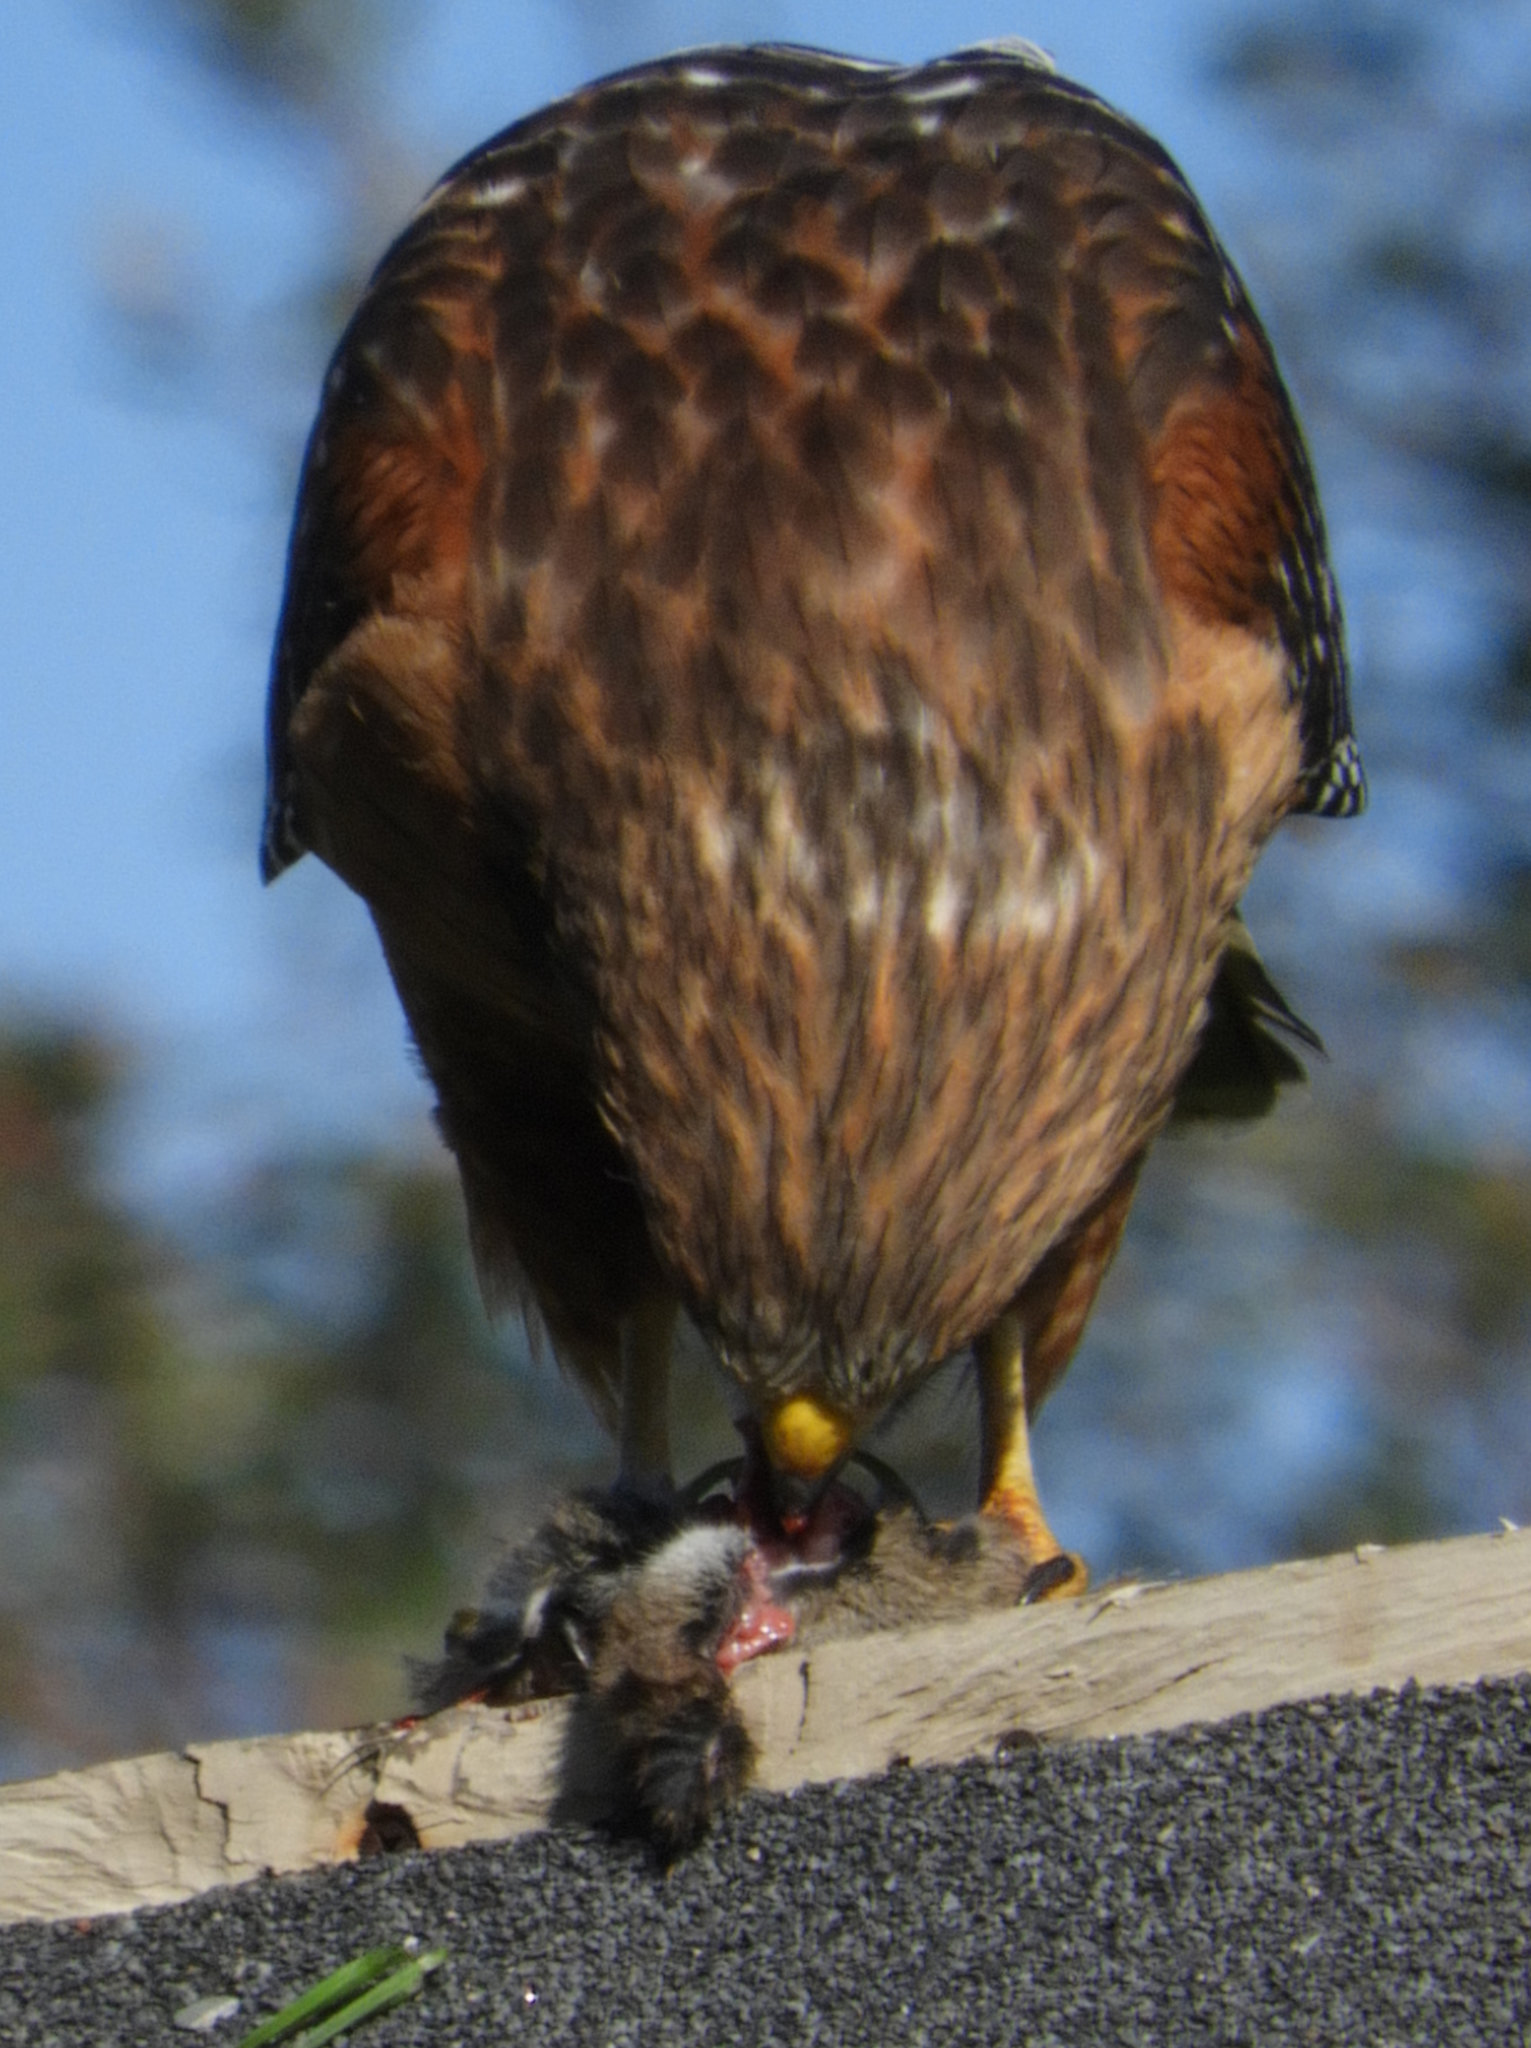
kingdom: Animalia
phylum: Chordata
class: Aves
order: Accipitriformes
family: Accipitridae
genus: Buteo
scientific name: Buteo lineatus
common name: Red-shouldered hawk
